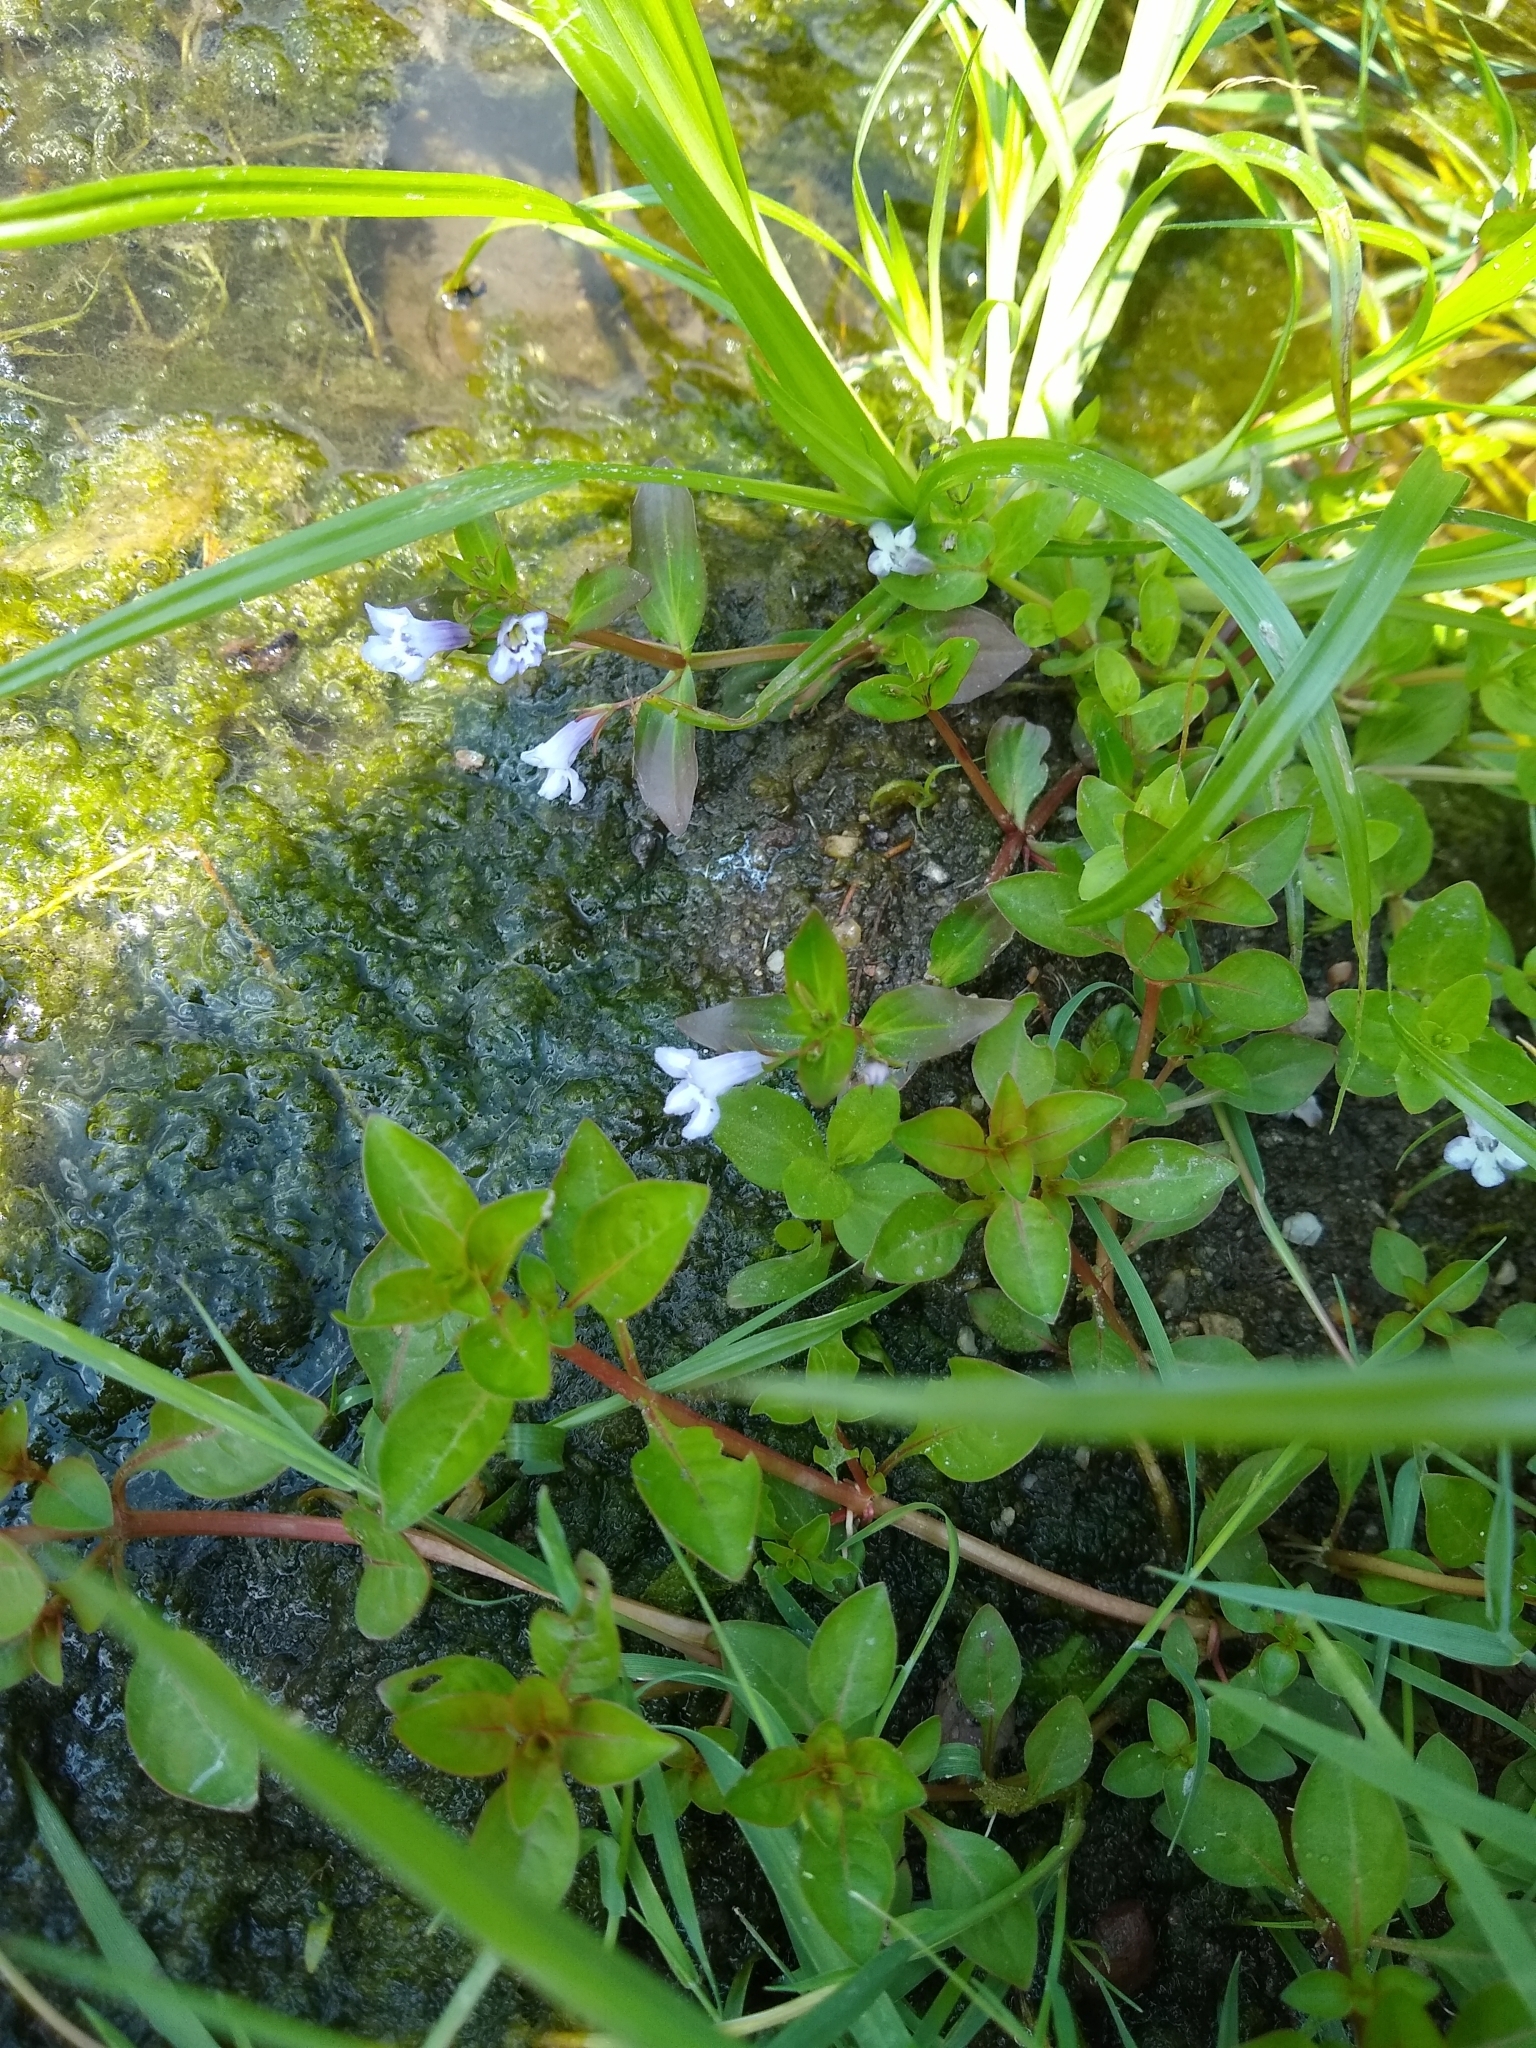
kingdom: Plantae
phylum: Tracheophyta
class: Magnoliopsida
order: Lamiales
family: Linderniaceae
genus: Lindernia
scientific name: Lindernia dubia
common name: Annual false pimpernel
